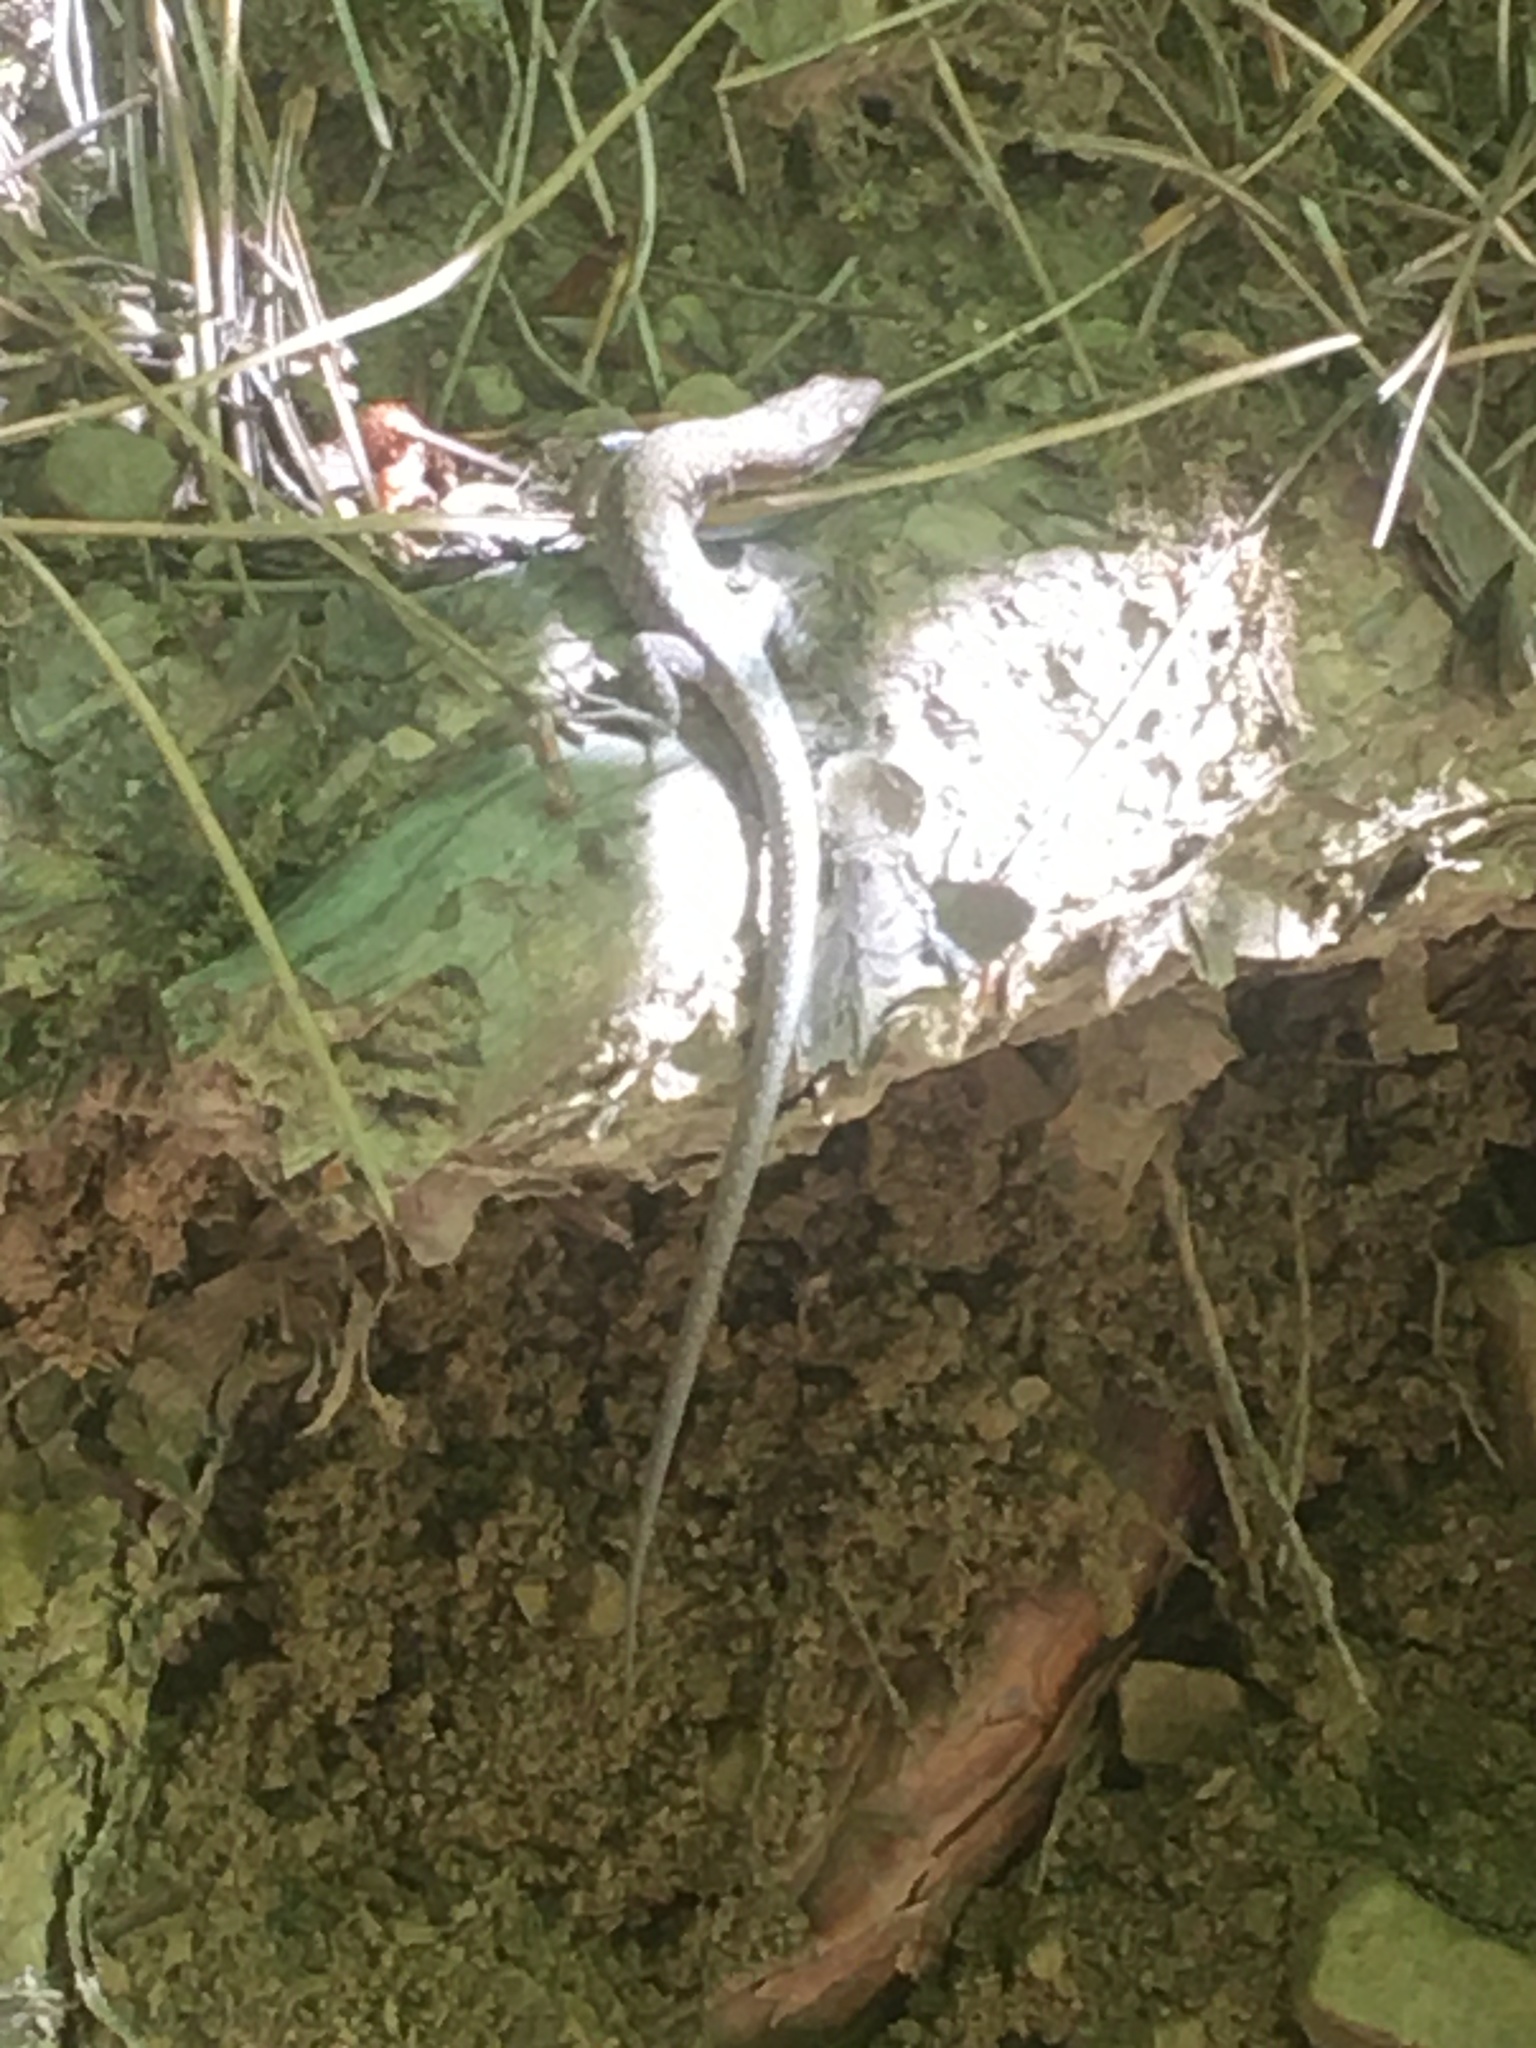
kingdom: Animalia
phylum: Chordata
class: Squamata
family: Lacertidae
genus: Darevskia
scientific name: Darevskia lindholmi
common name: Crimean rock lizard
